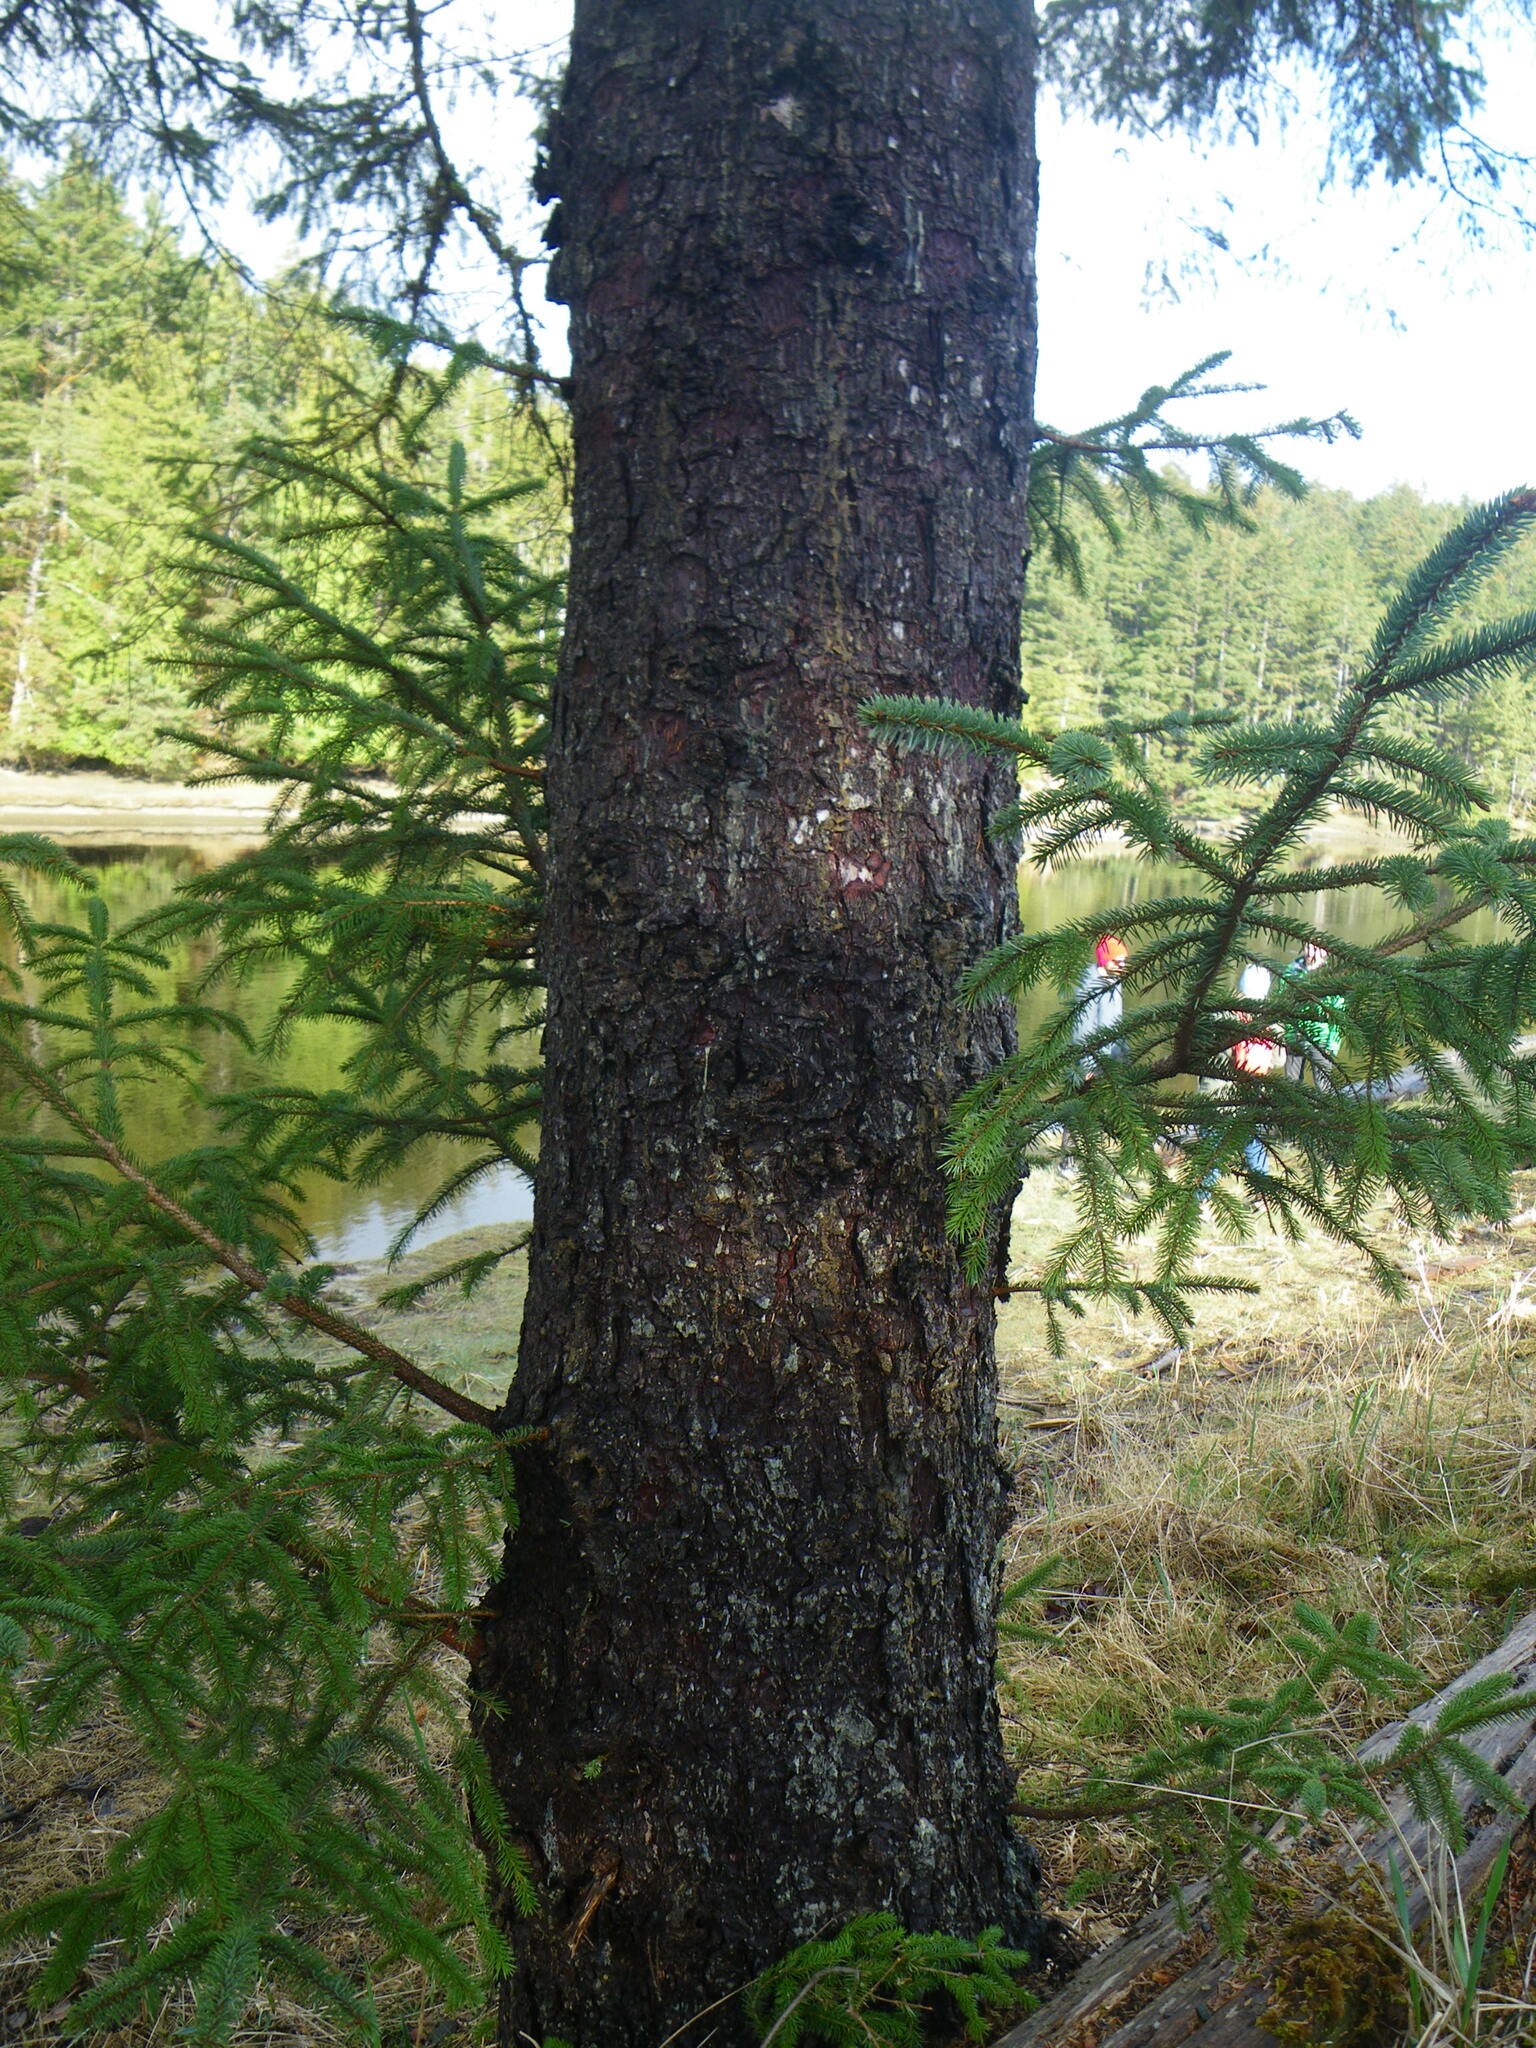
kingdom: Plantae
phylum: Tracheophyta
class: Pinopsida
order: Pinales
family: Pinaceae
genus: Picea
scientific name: Picea sitchensis
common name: Sitka spruce
